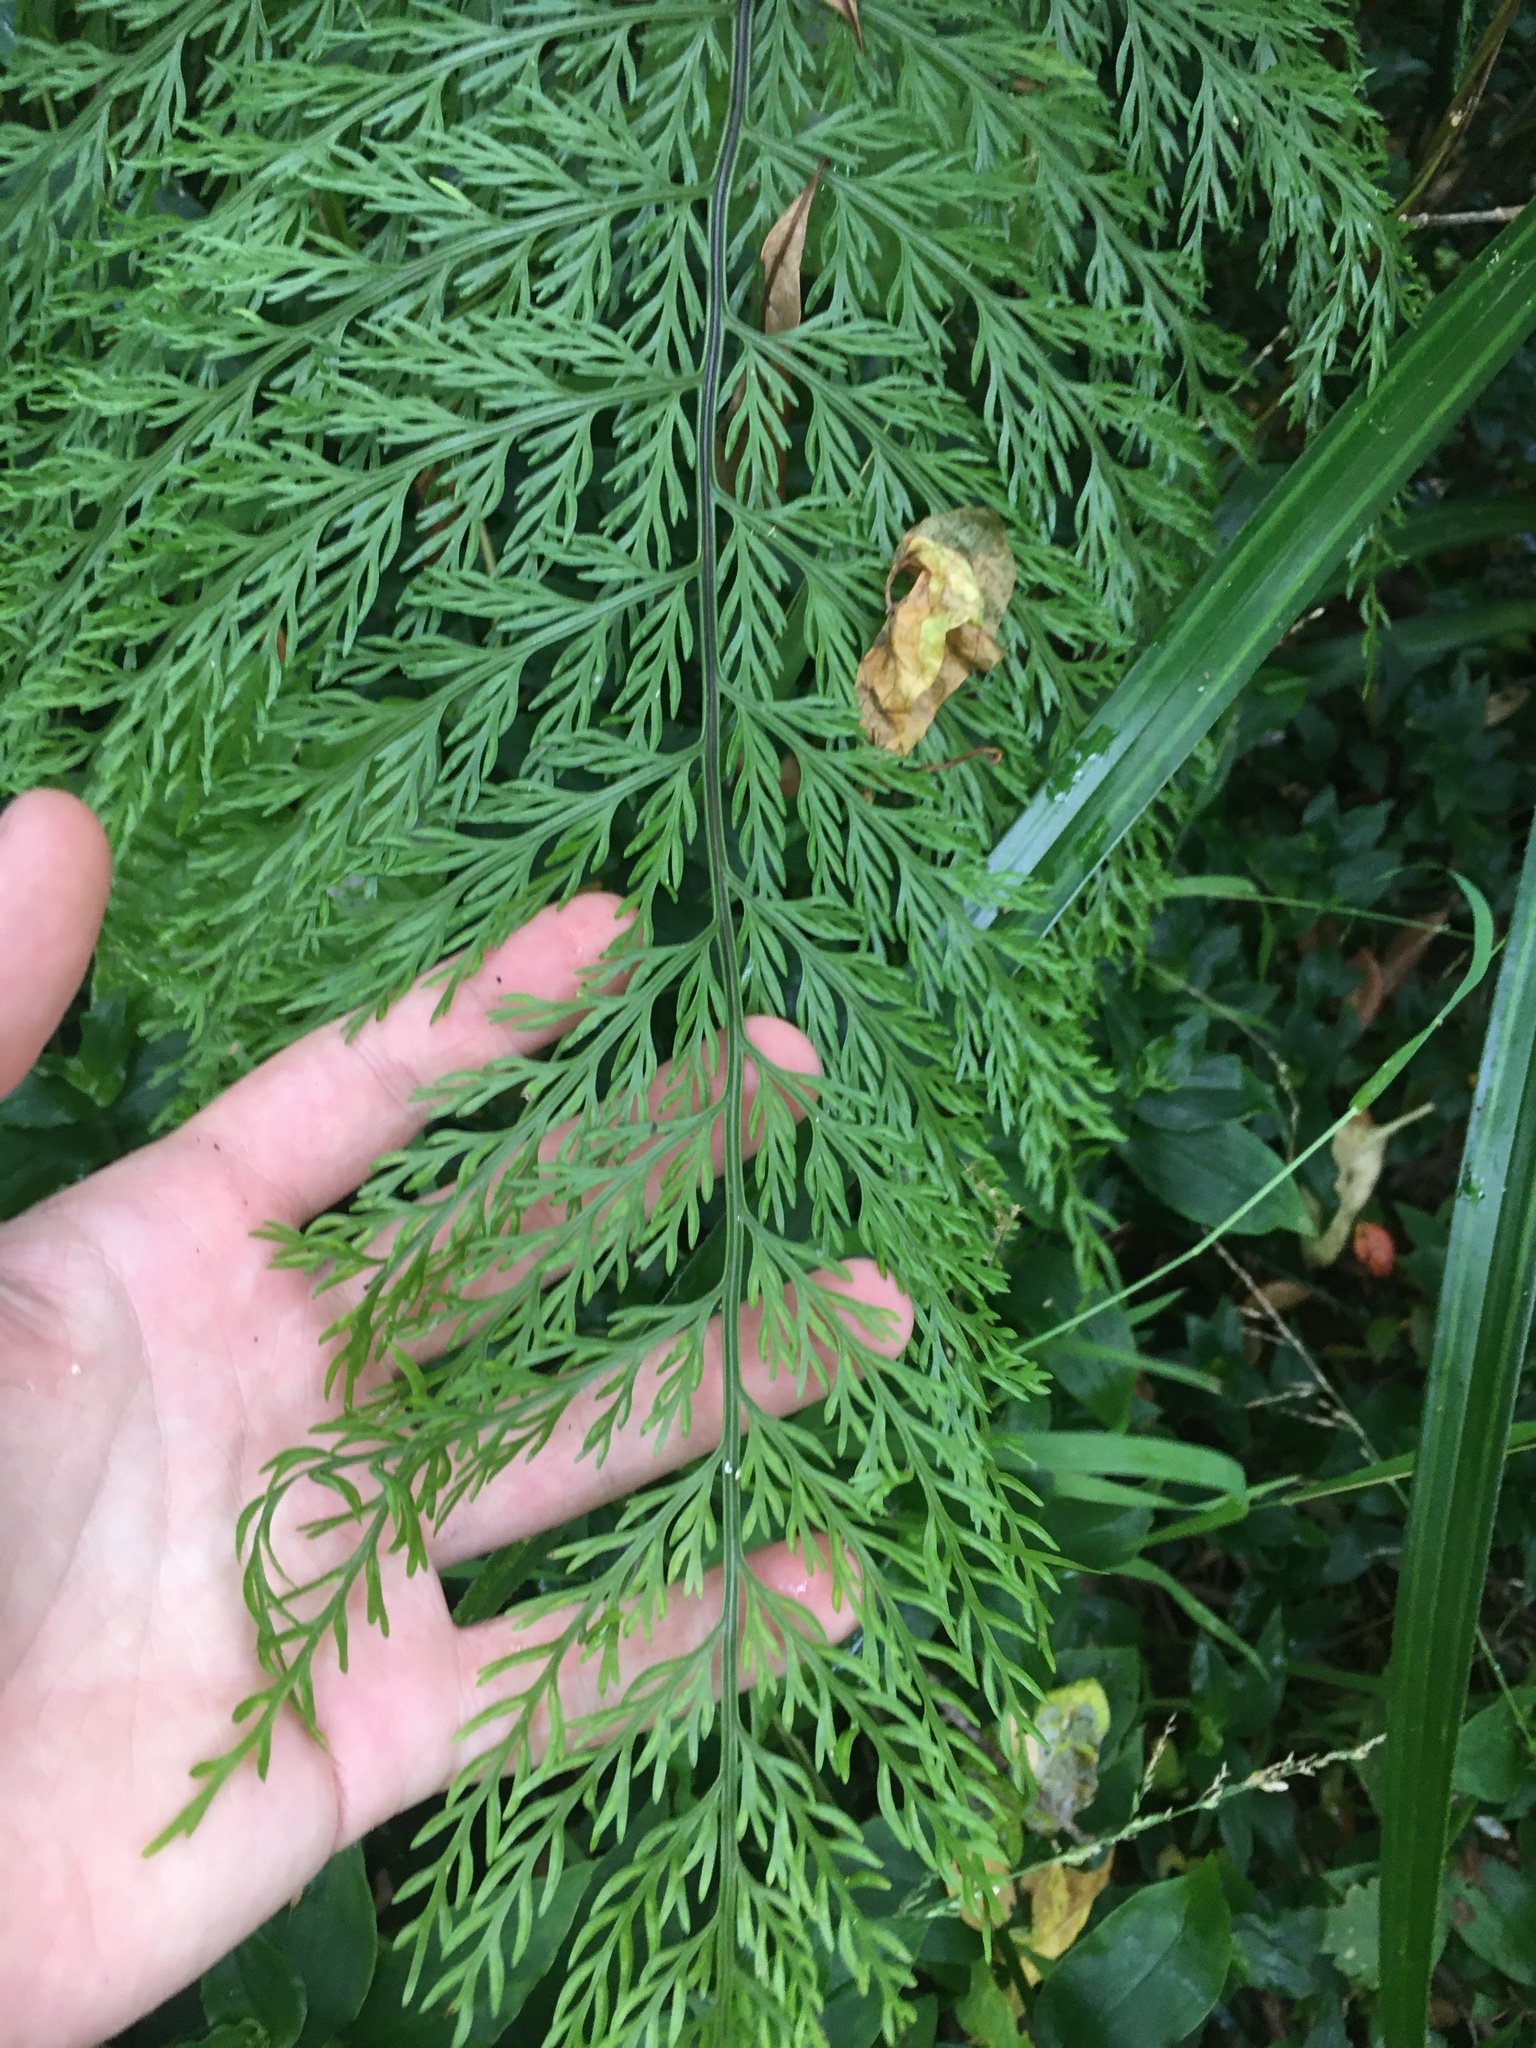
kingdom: Plantae
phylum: Tracheophyta
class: Polypodiopsida
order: Polypodiales
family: Aspleniaceae
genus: Asplenium
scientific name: Asplenium lucrosum
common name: False hen-and-chickens fern
